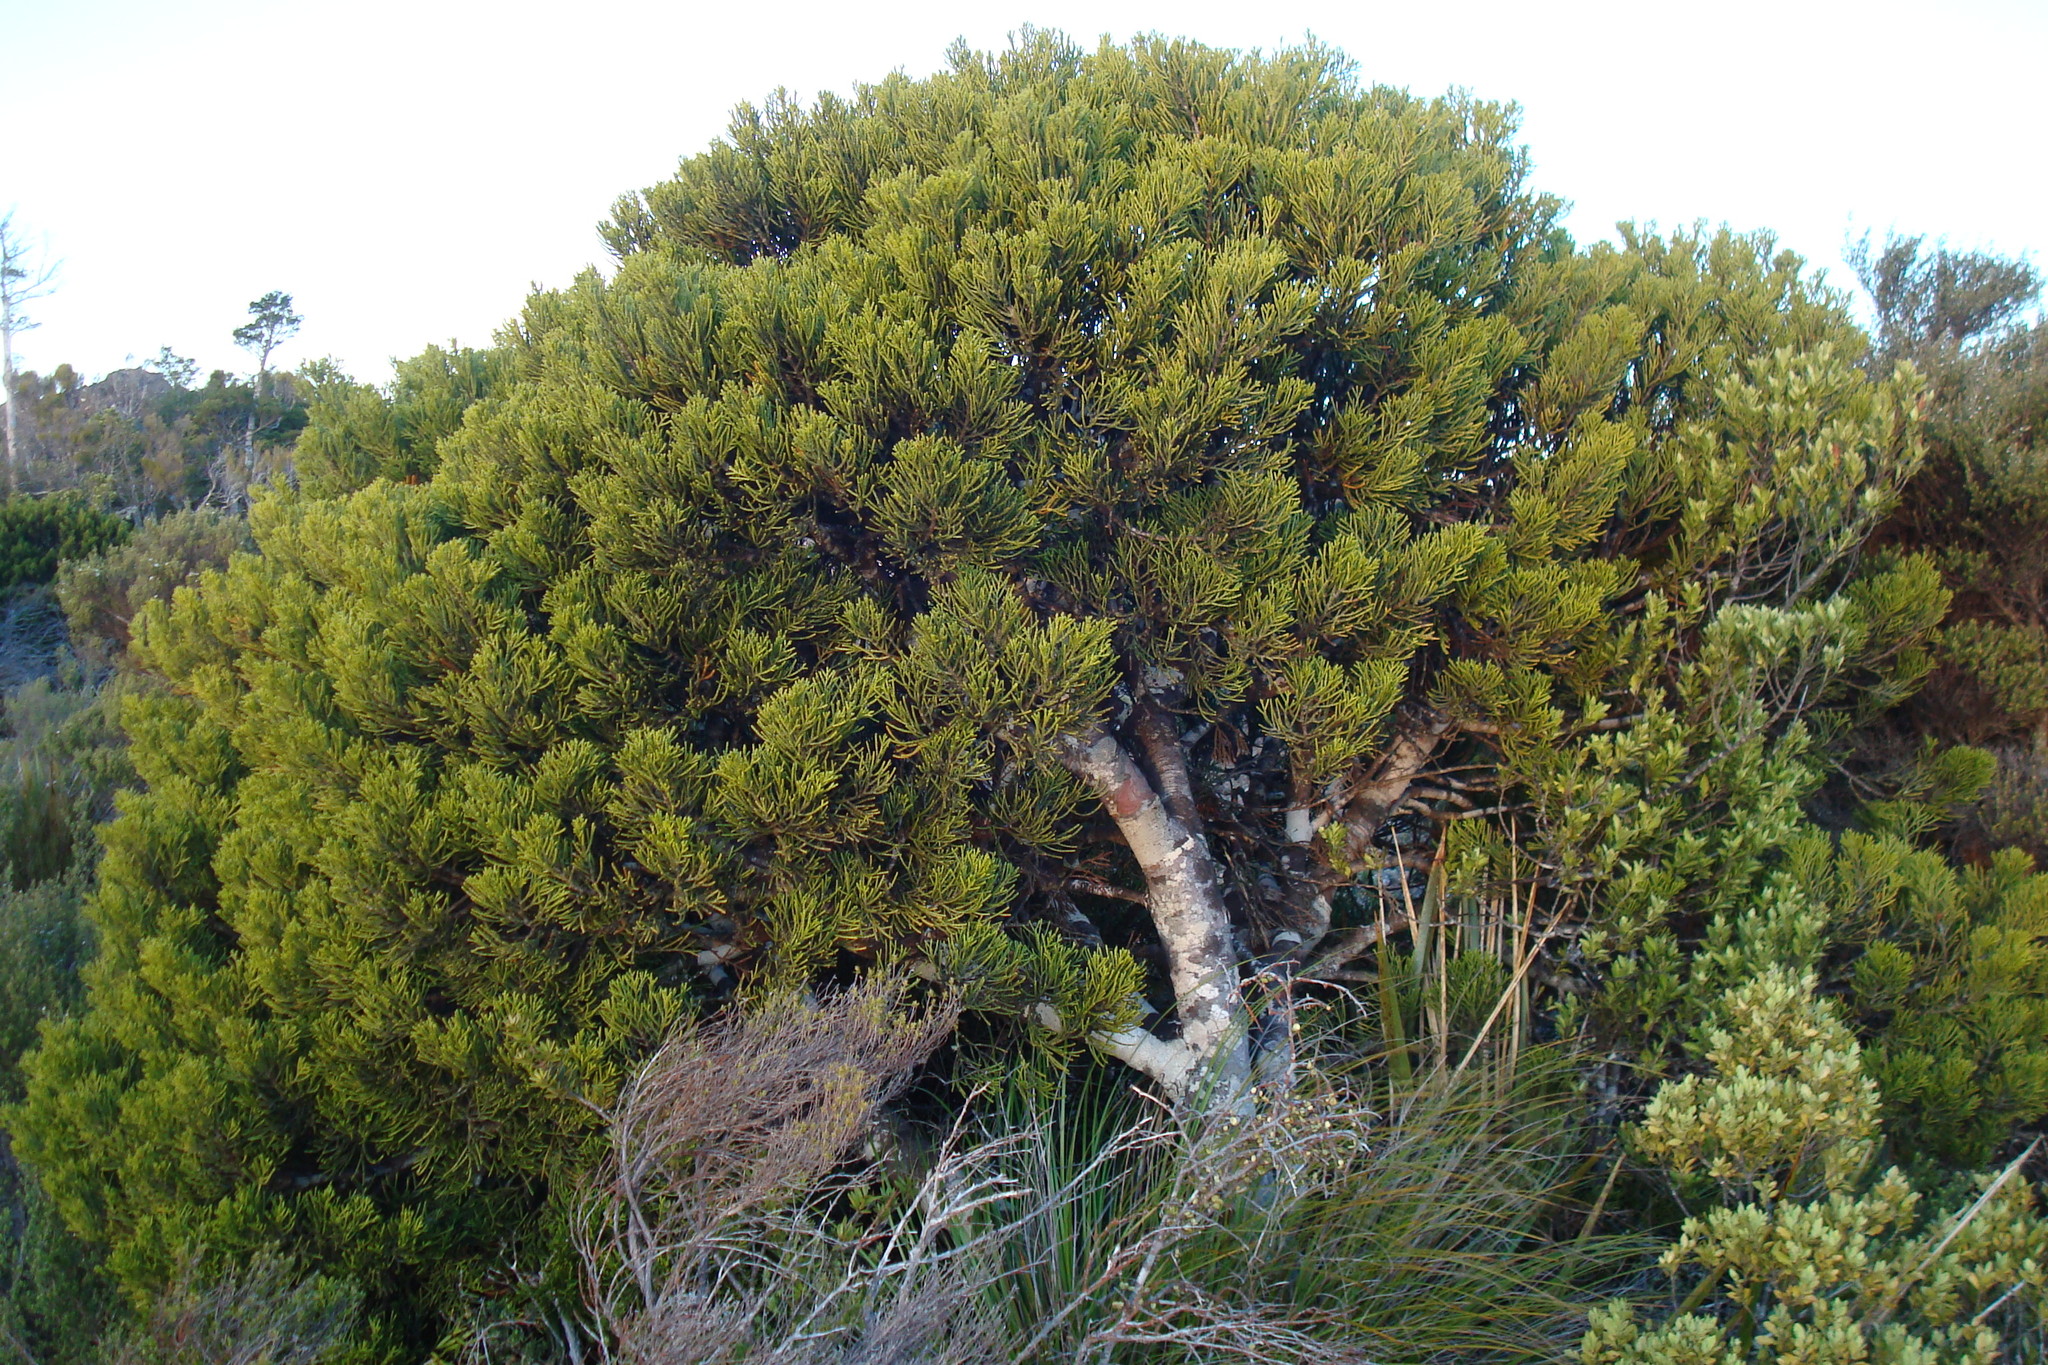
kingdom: Plantae
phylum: Tracheophyta
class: Pinopsida
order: Pinales
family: Podocarpaceae
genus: Halocarpus
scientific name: Halocarpus biformis
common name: Alpine tarwood
